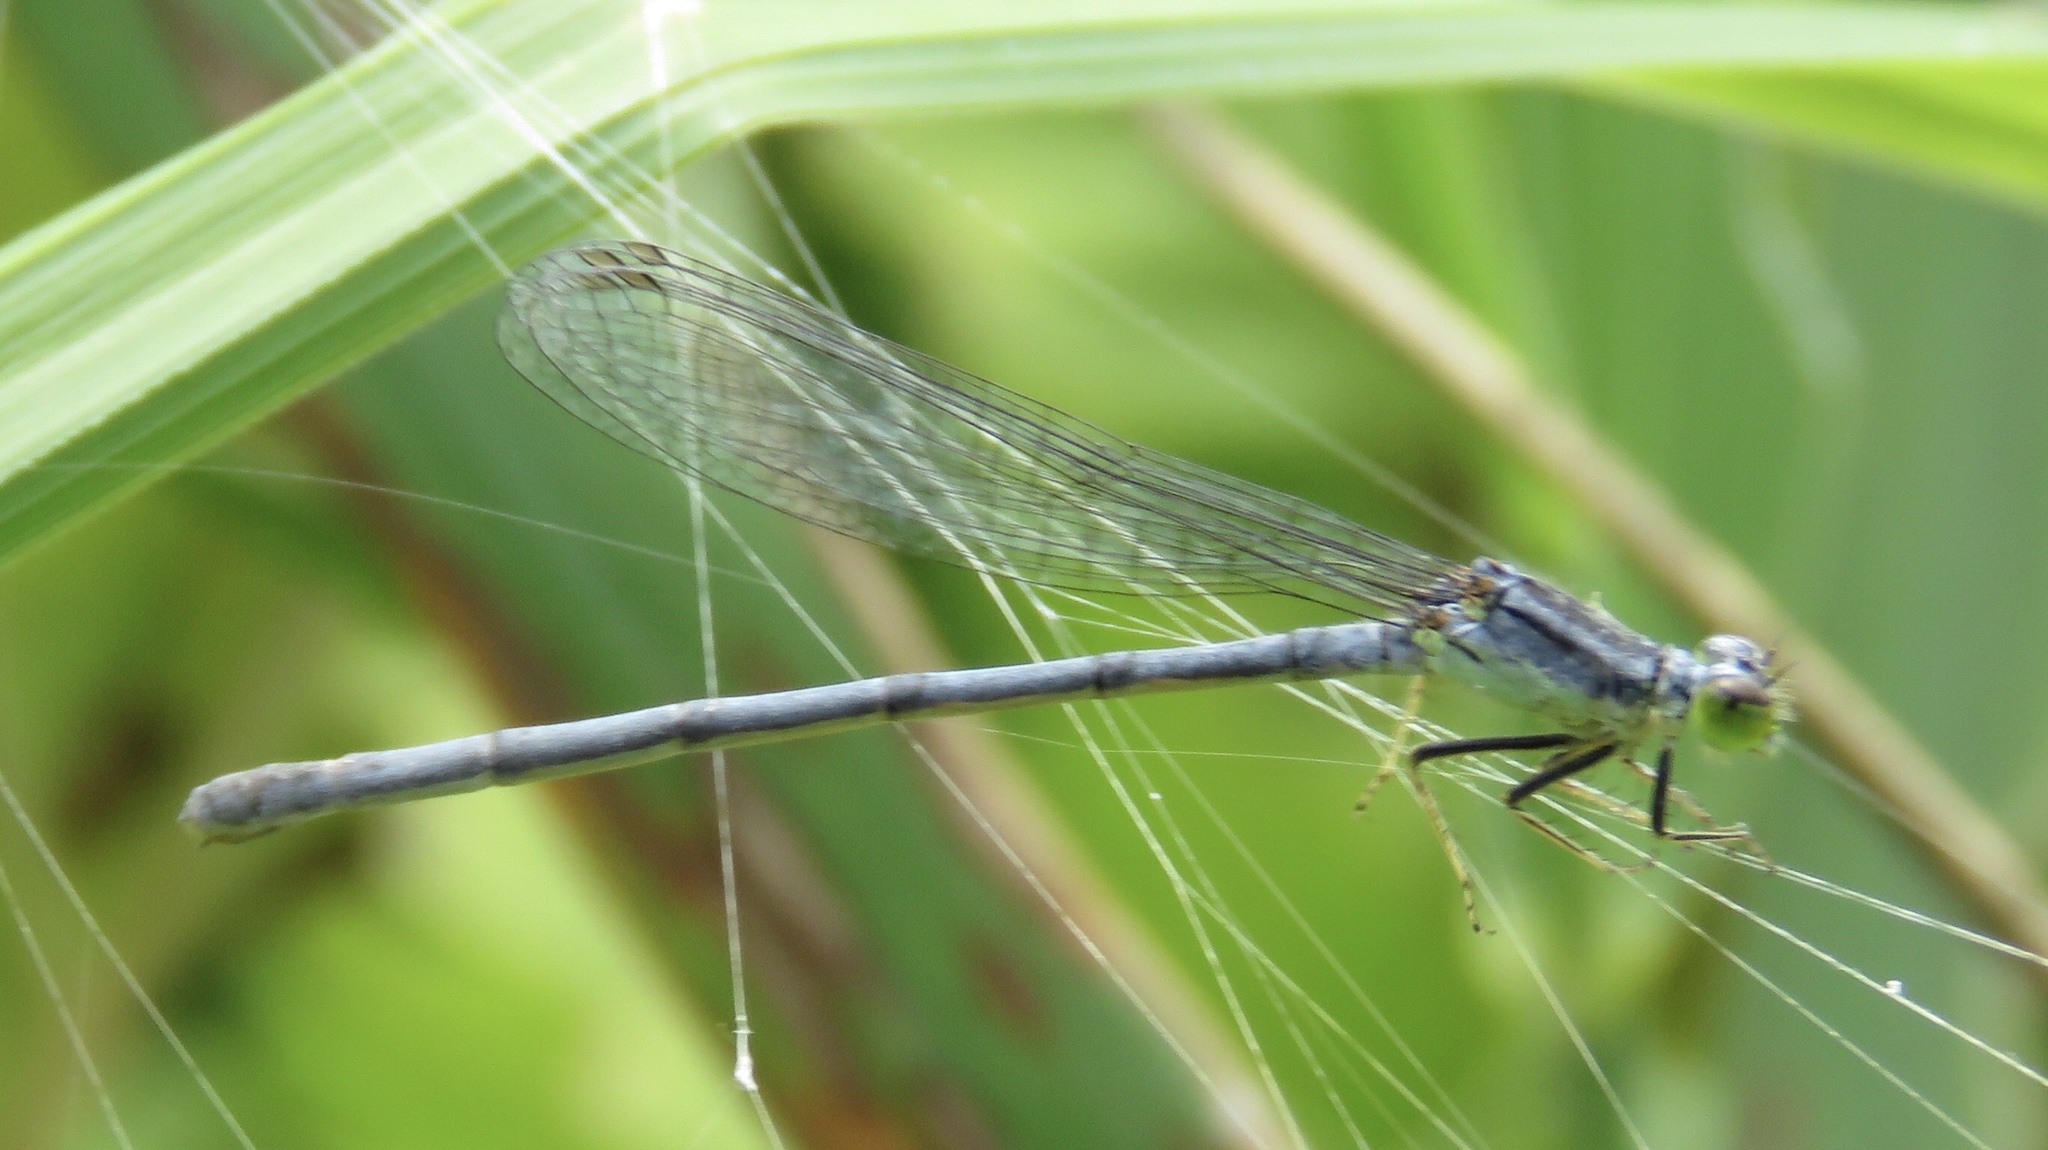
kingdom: Animalia
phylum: Arthropoda
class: Insecta
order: Odonata
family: Coenagrionidae
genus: Ischnura
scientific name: Ischnura verticalis
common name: Eastern forktail
